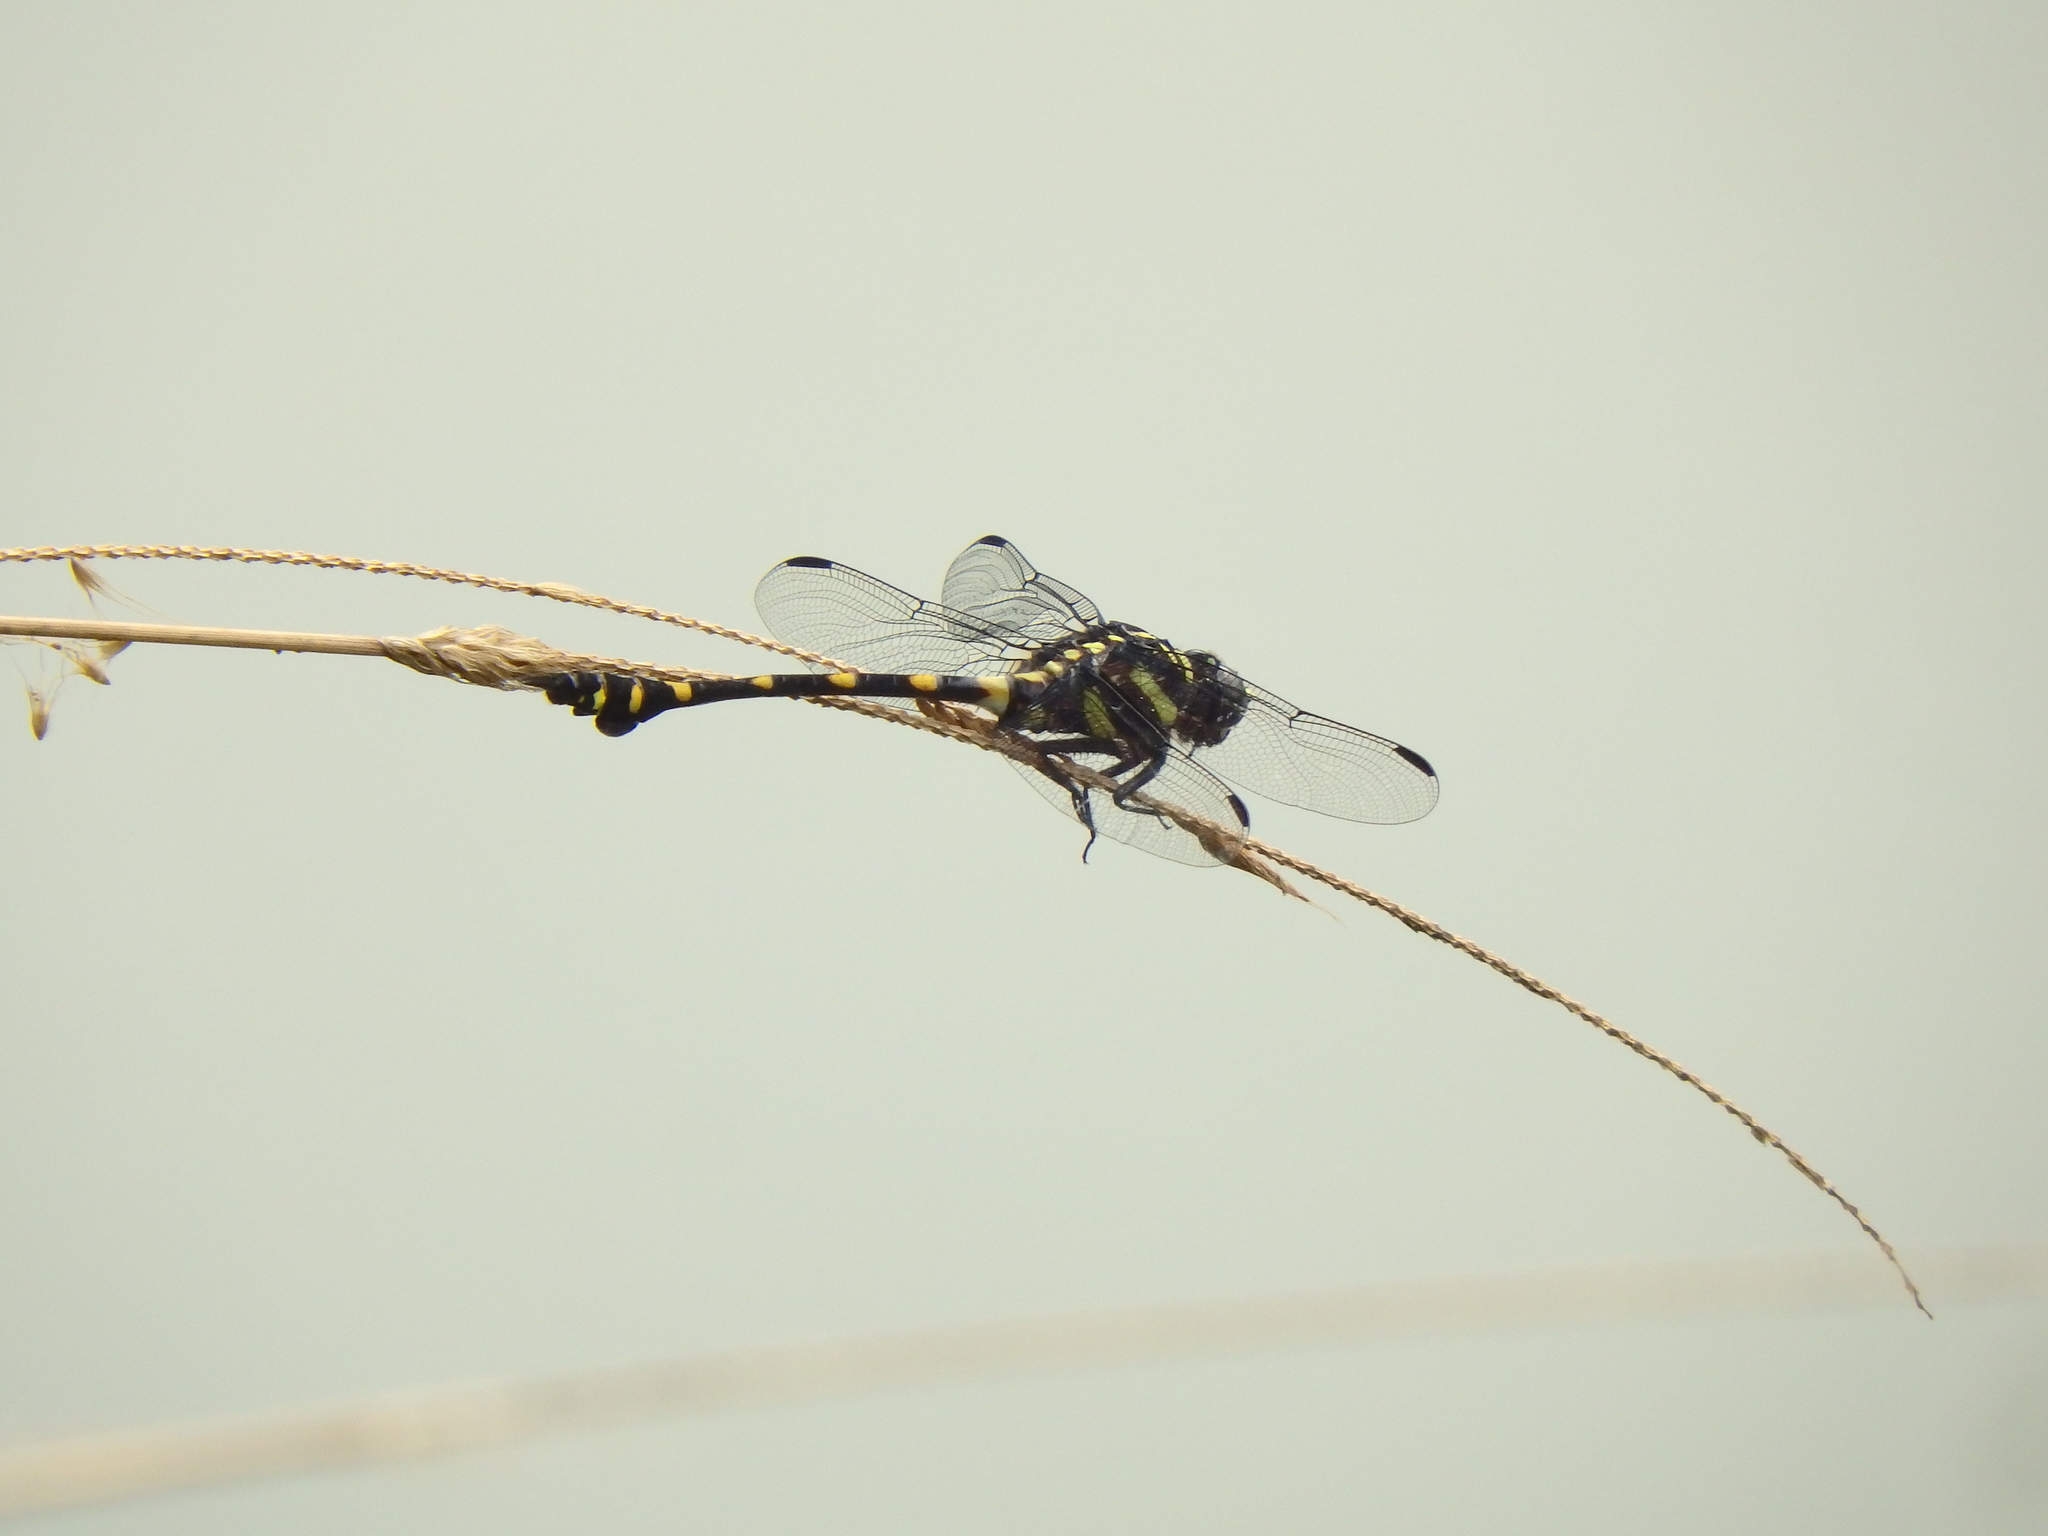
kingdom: Animalia
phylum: Arthropoda
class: Insecta
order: Odonata
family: Gomphidae
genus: Ictinogomphus
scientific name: Ictinogomphus decoratus
